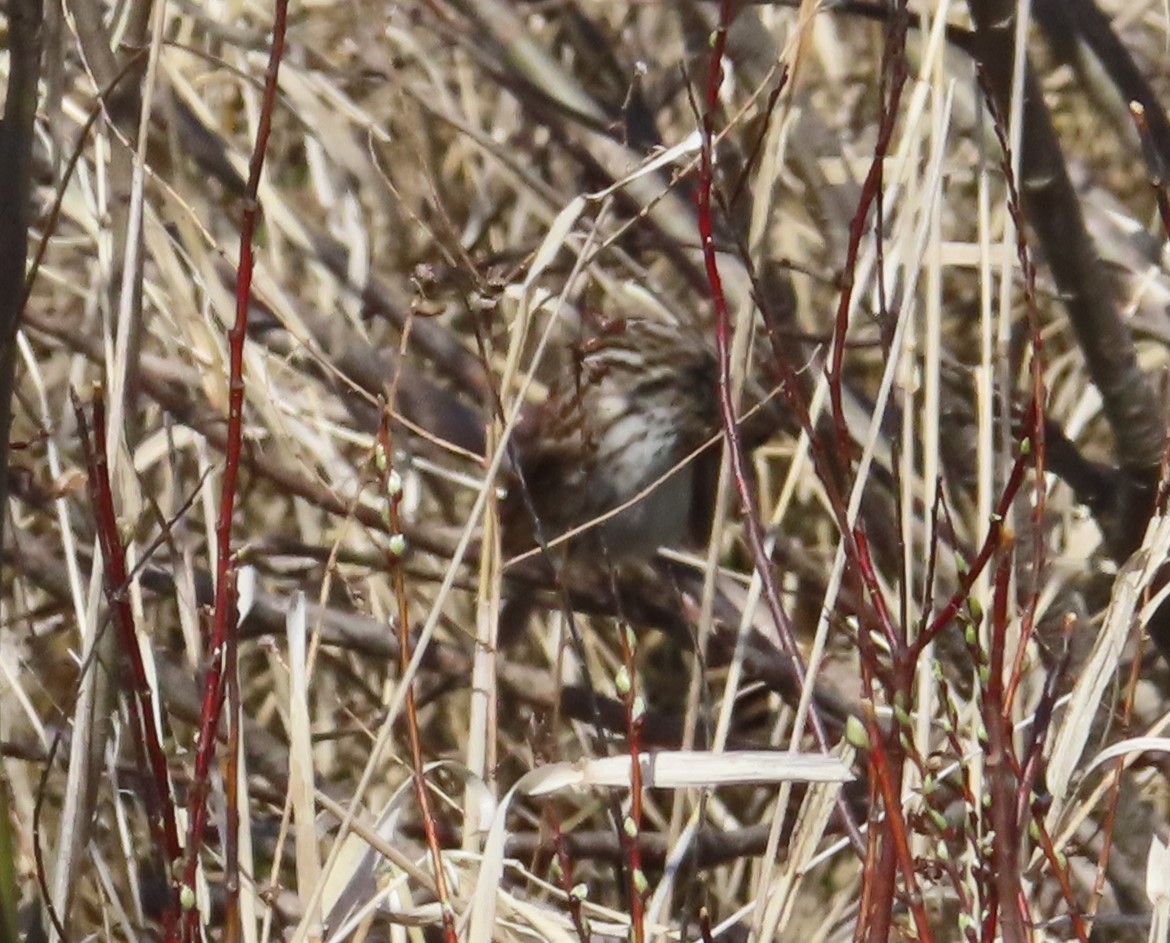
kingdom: Animalia
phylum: Chordata
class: Aves
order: Passeriformes
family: Passerellidae
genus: Melospiza
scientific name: Melospiza melodia
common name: Song sparrow
